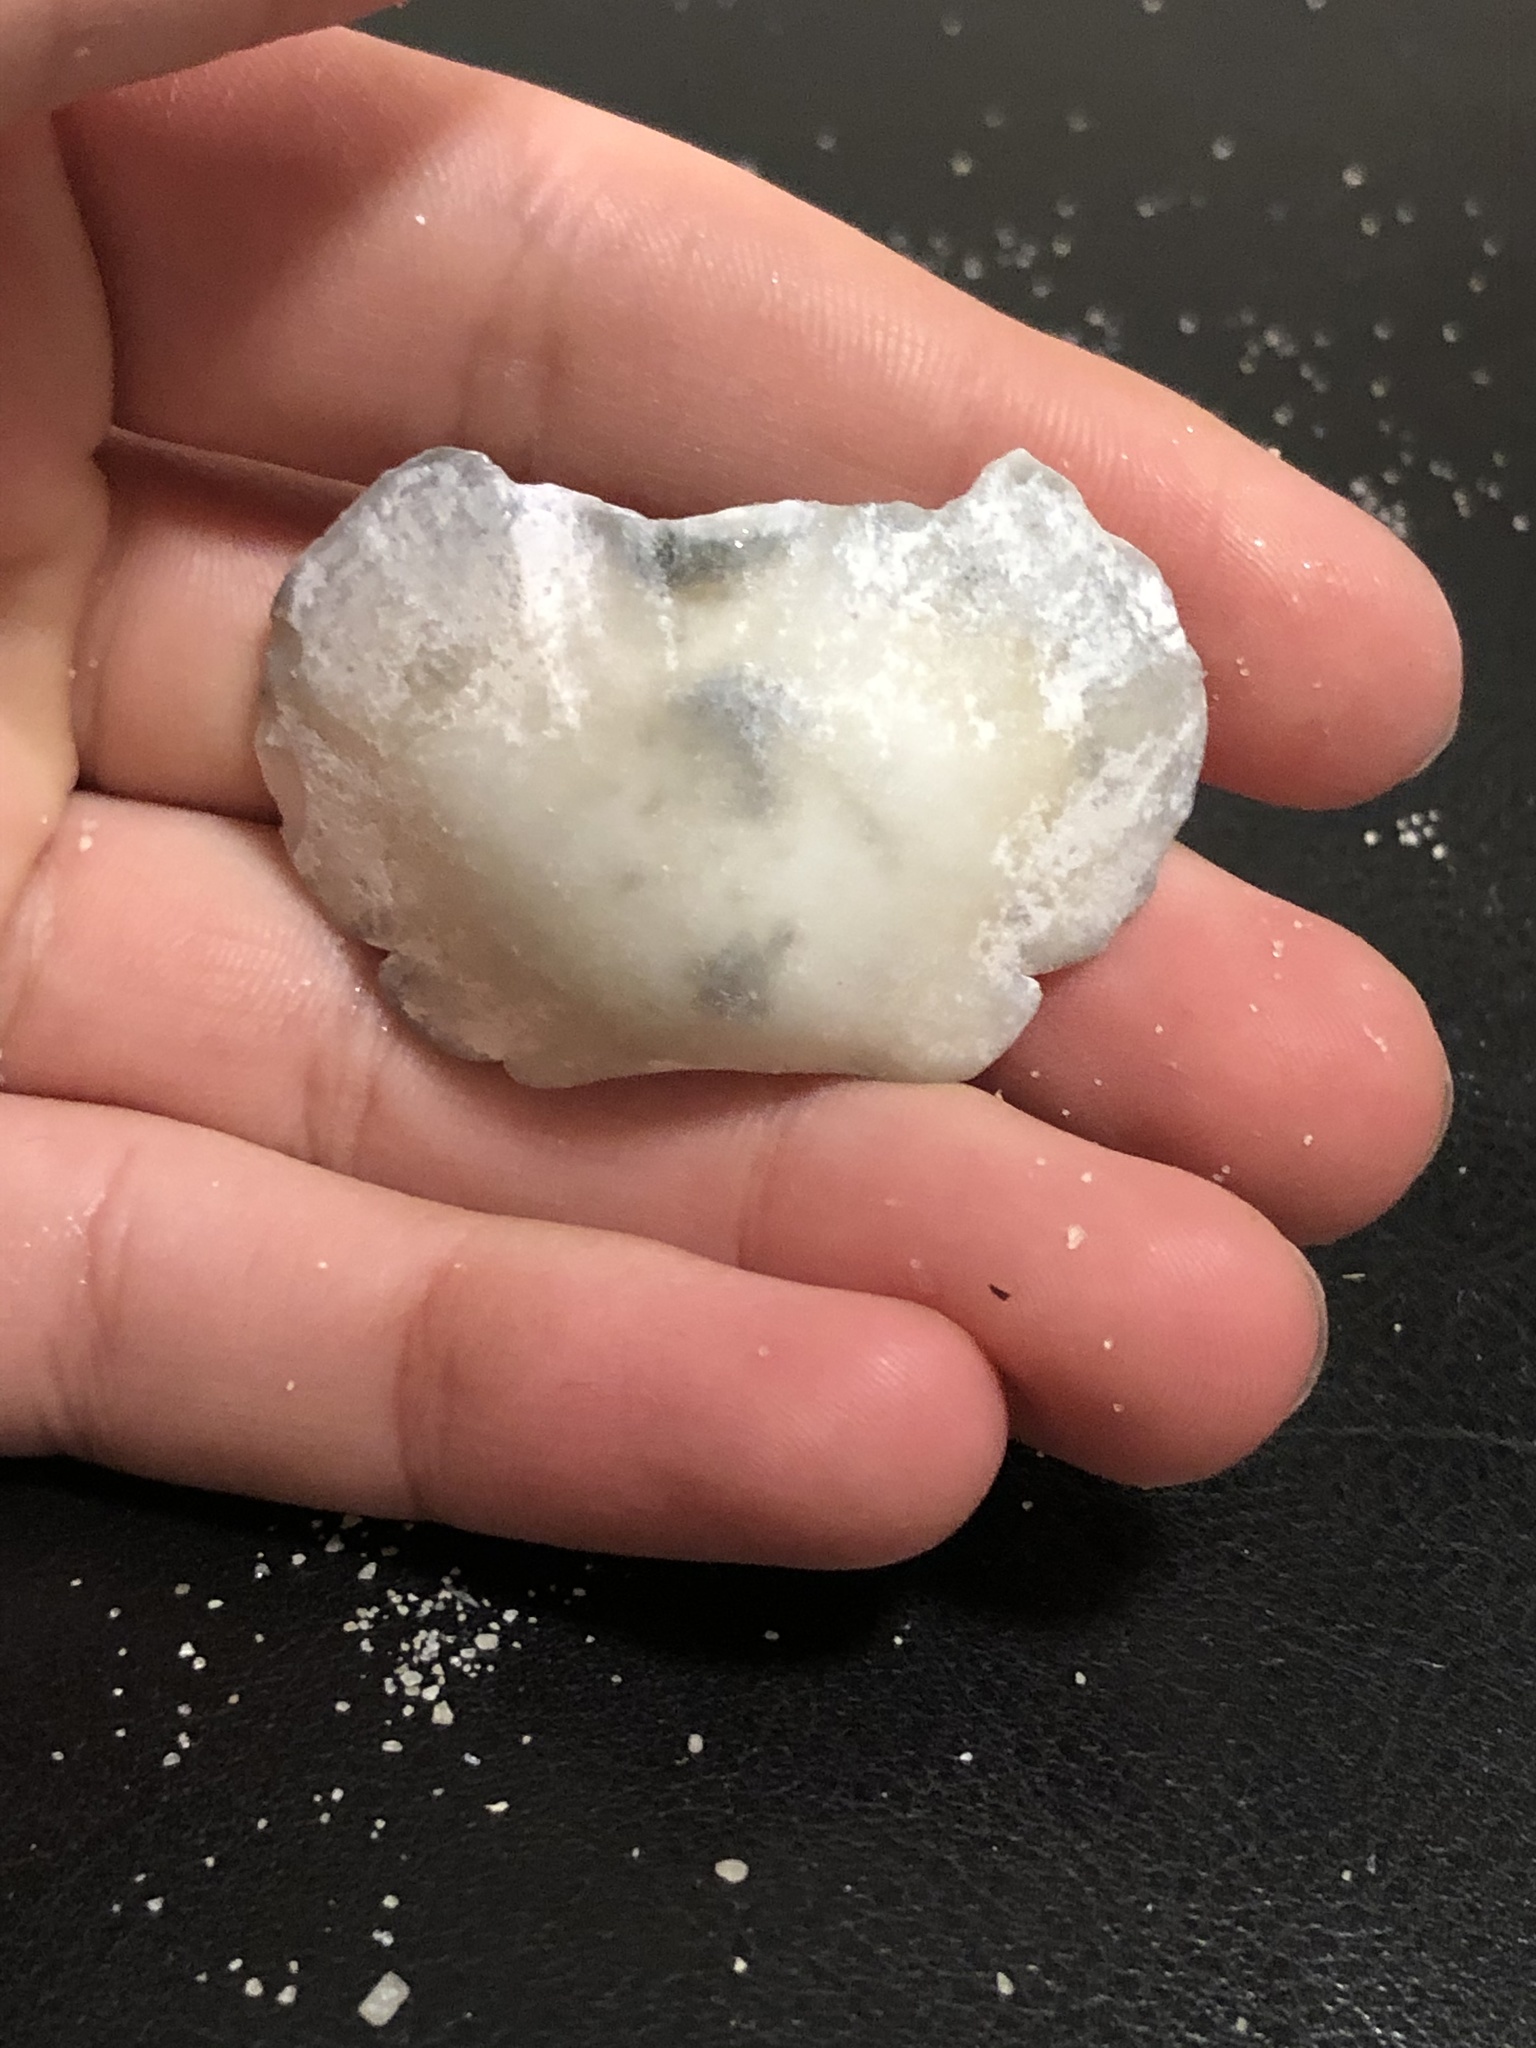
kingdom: Animalia
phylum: Mollusca
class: Polyplacophora
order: Chitonida
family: Acanthochitonidae
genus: Cryptochiton
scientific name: Cryptochiton stelleri
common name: Giant pacific chiton
